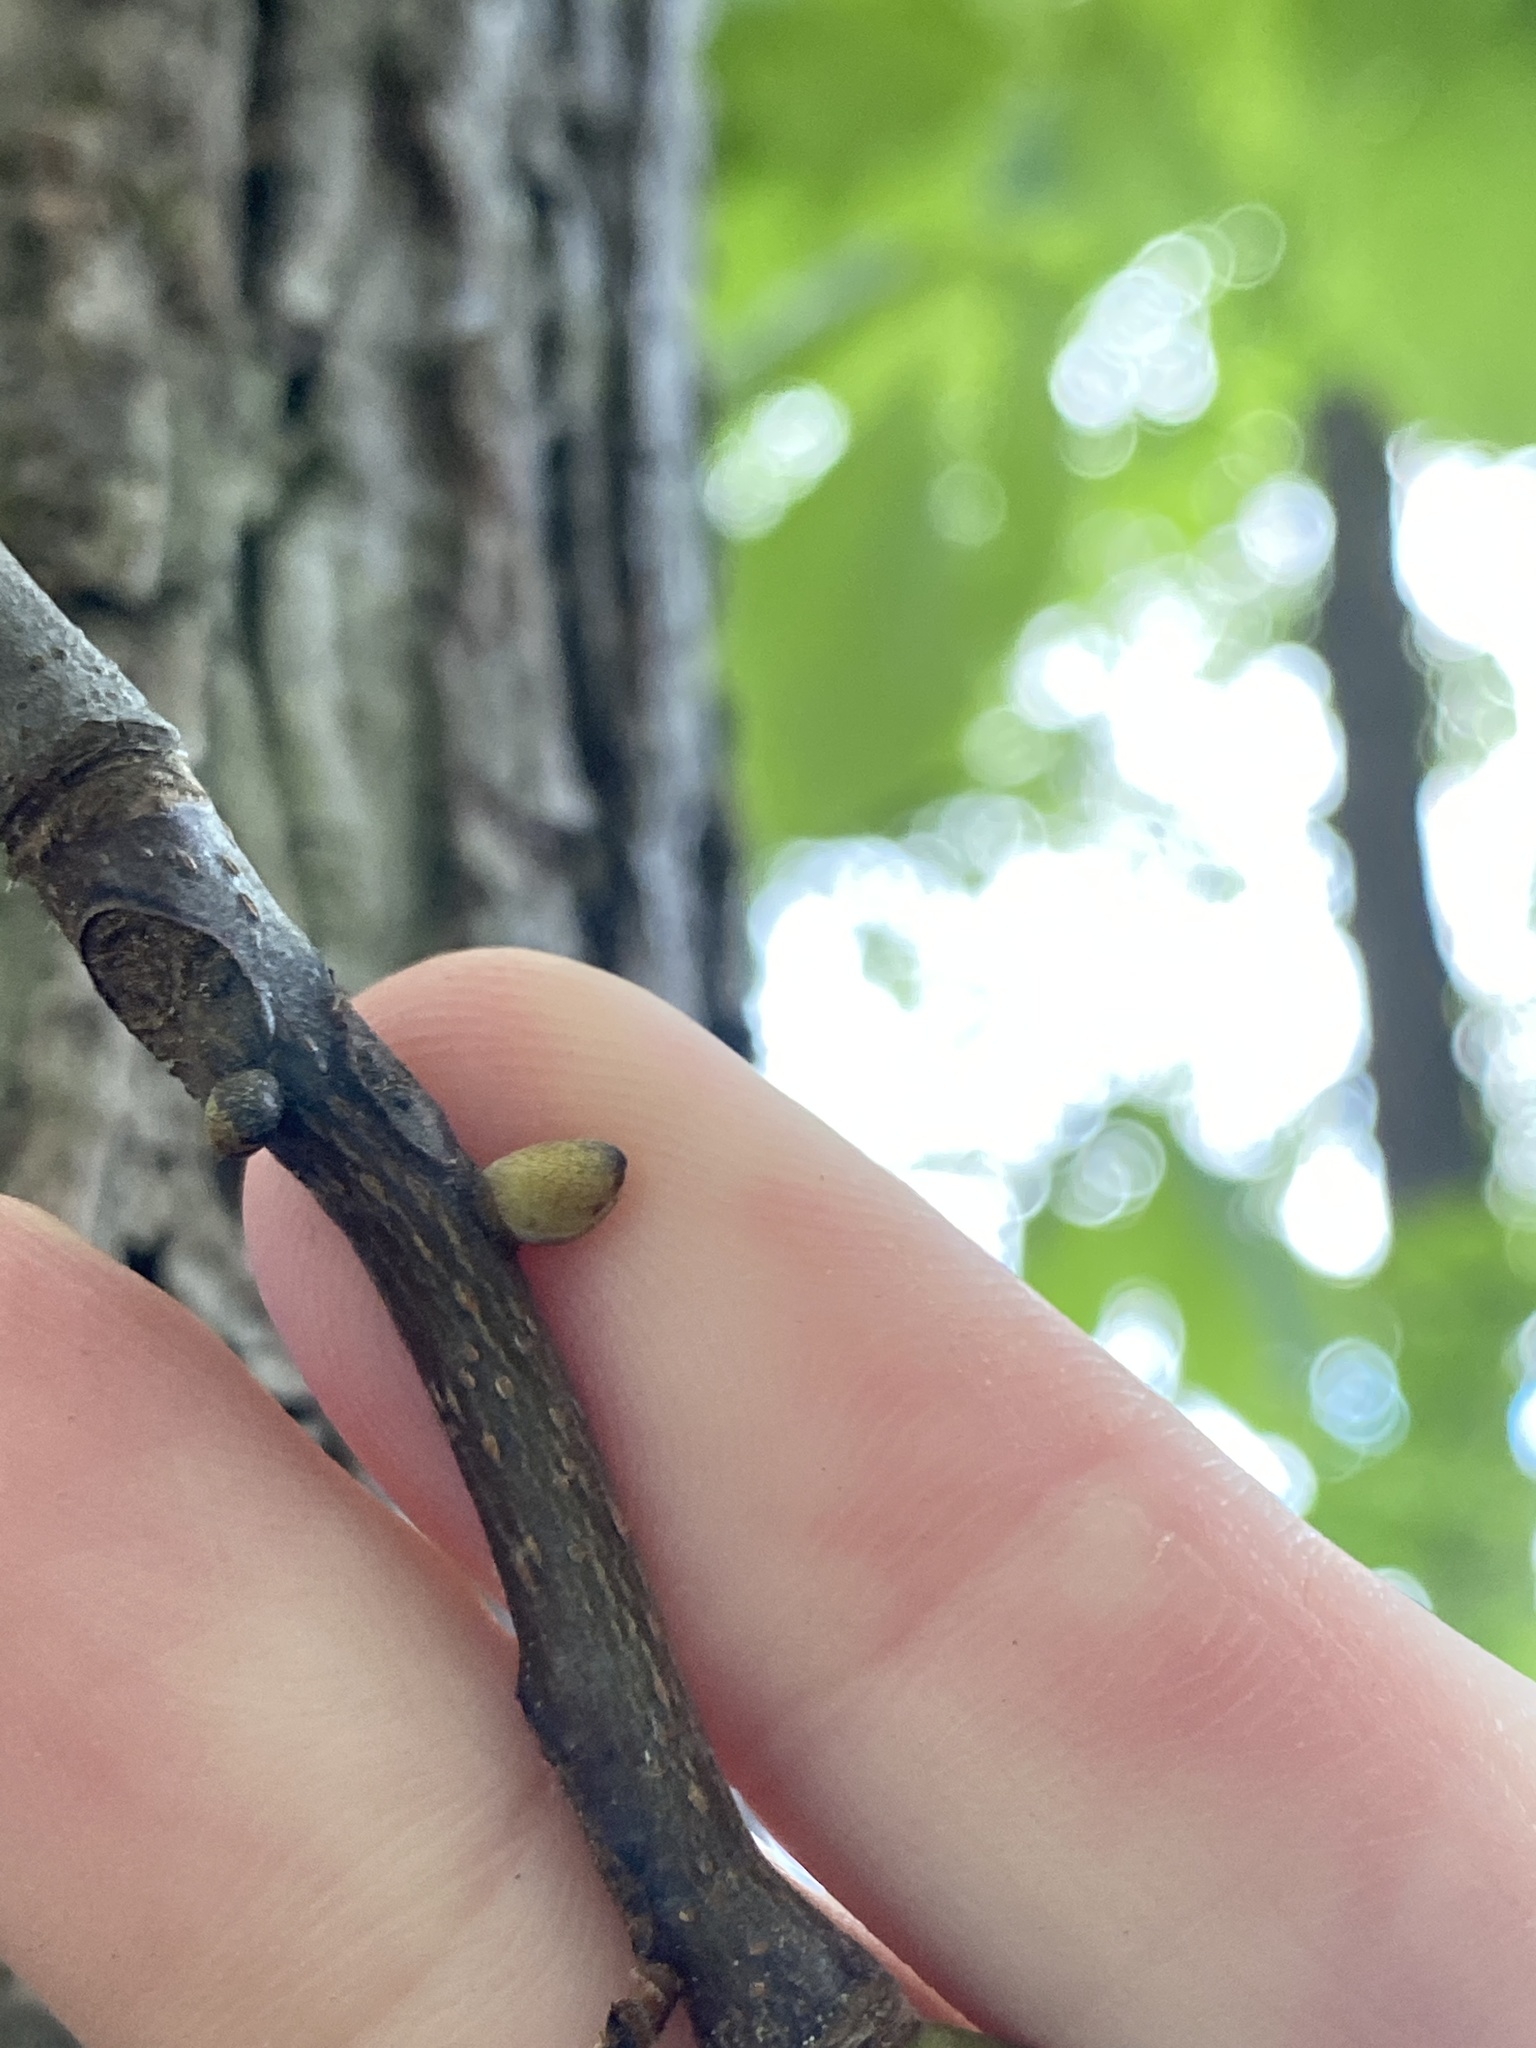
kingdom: Plantae
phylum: Tracheophyta
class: Magnoliopsida
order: Fagales
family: Juglandaceae
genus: Carya
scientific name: Carya glabra
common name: Pignut hickory
